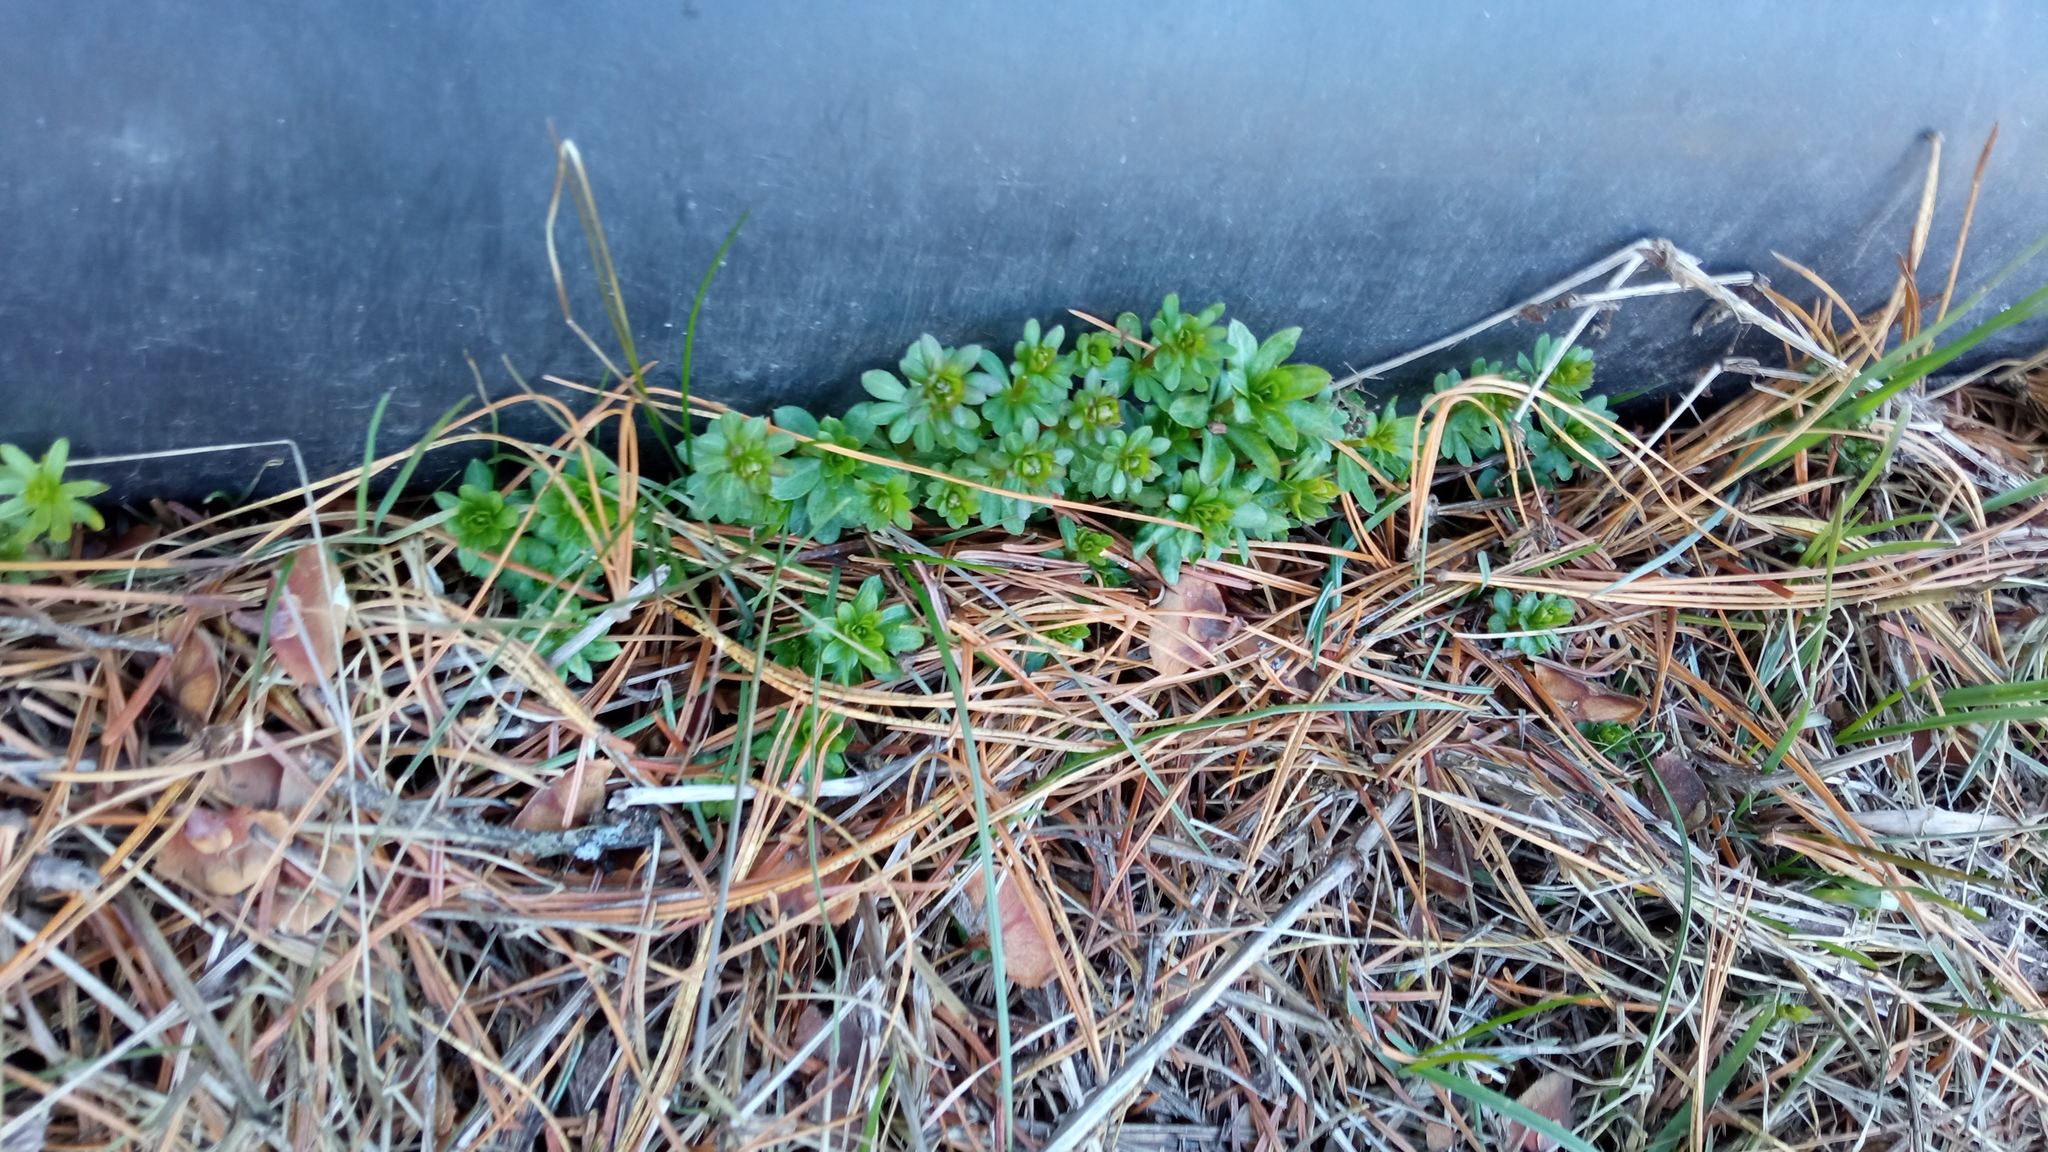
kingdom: Plantae
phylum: Tracheophyta
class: Magnoliopsida
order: Gentianales
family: Rubiaceae
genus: Galium
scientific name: Galium mollugo
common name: Hedge bedstraw
